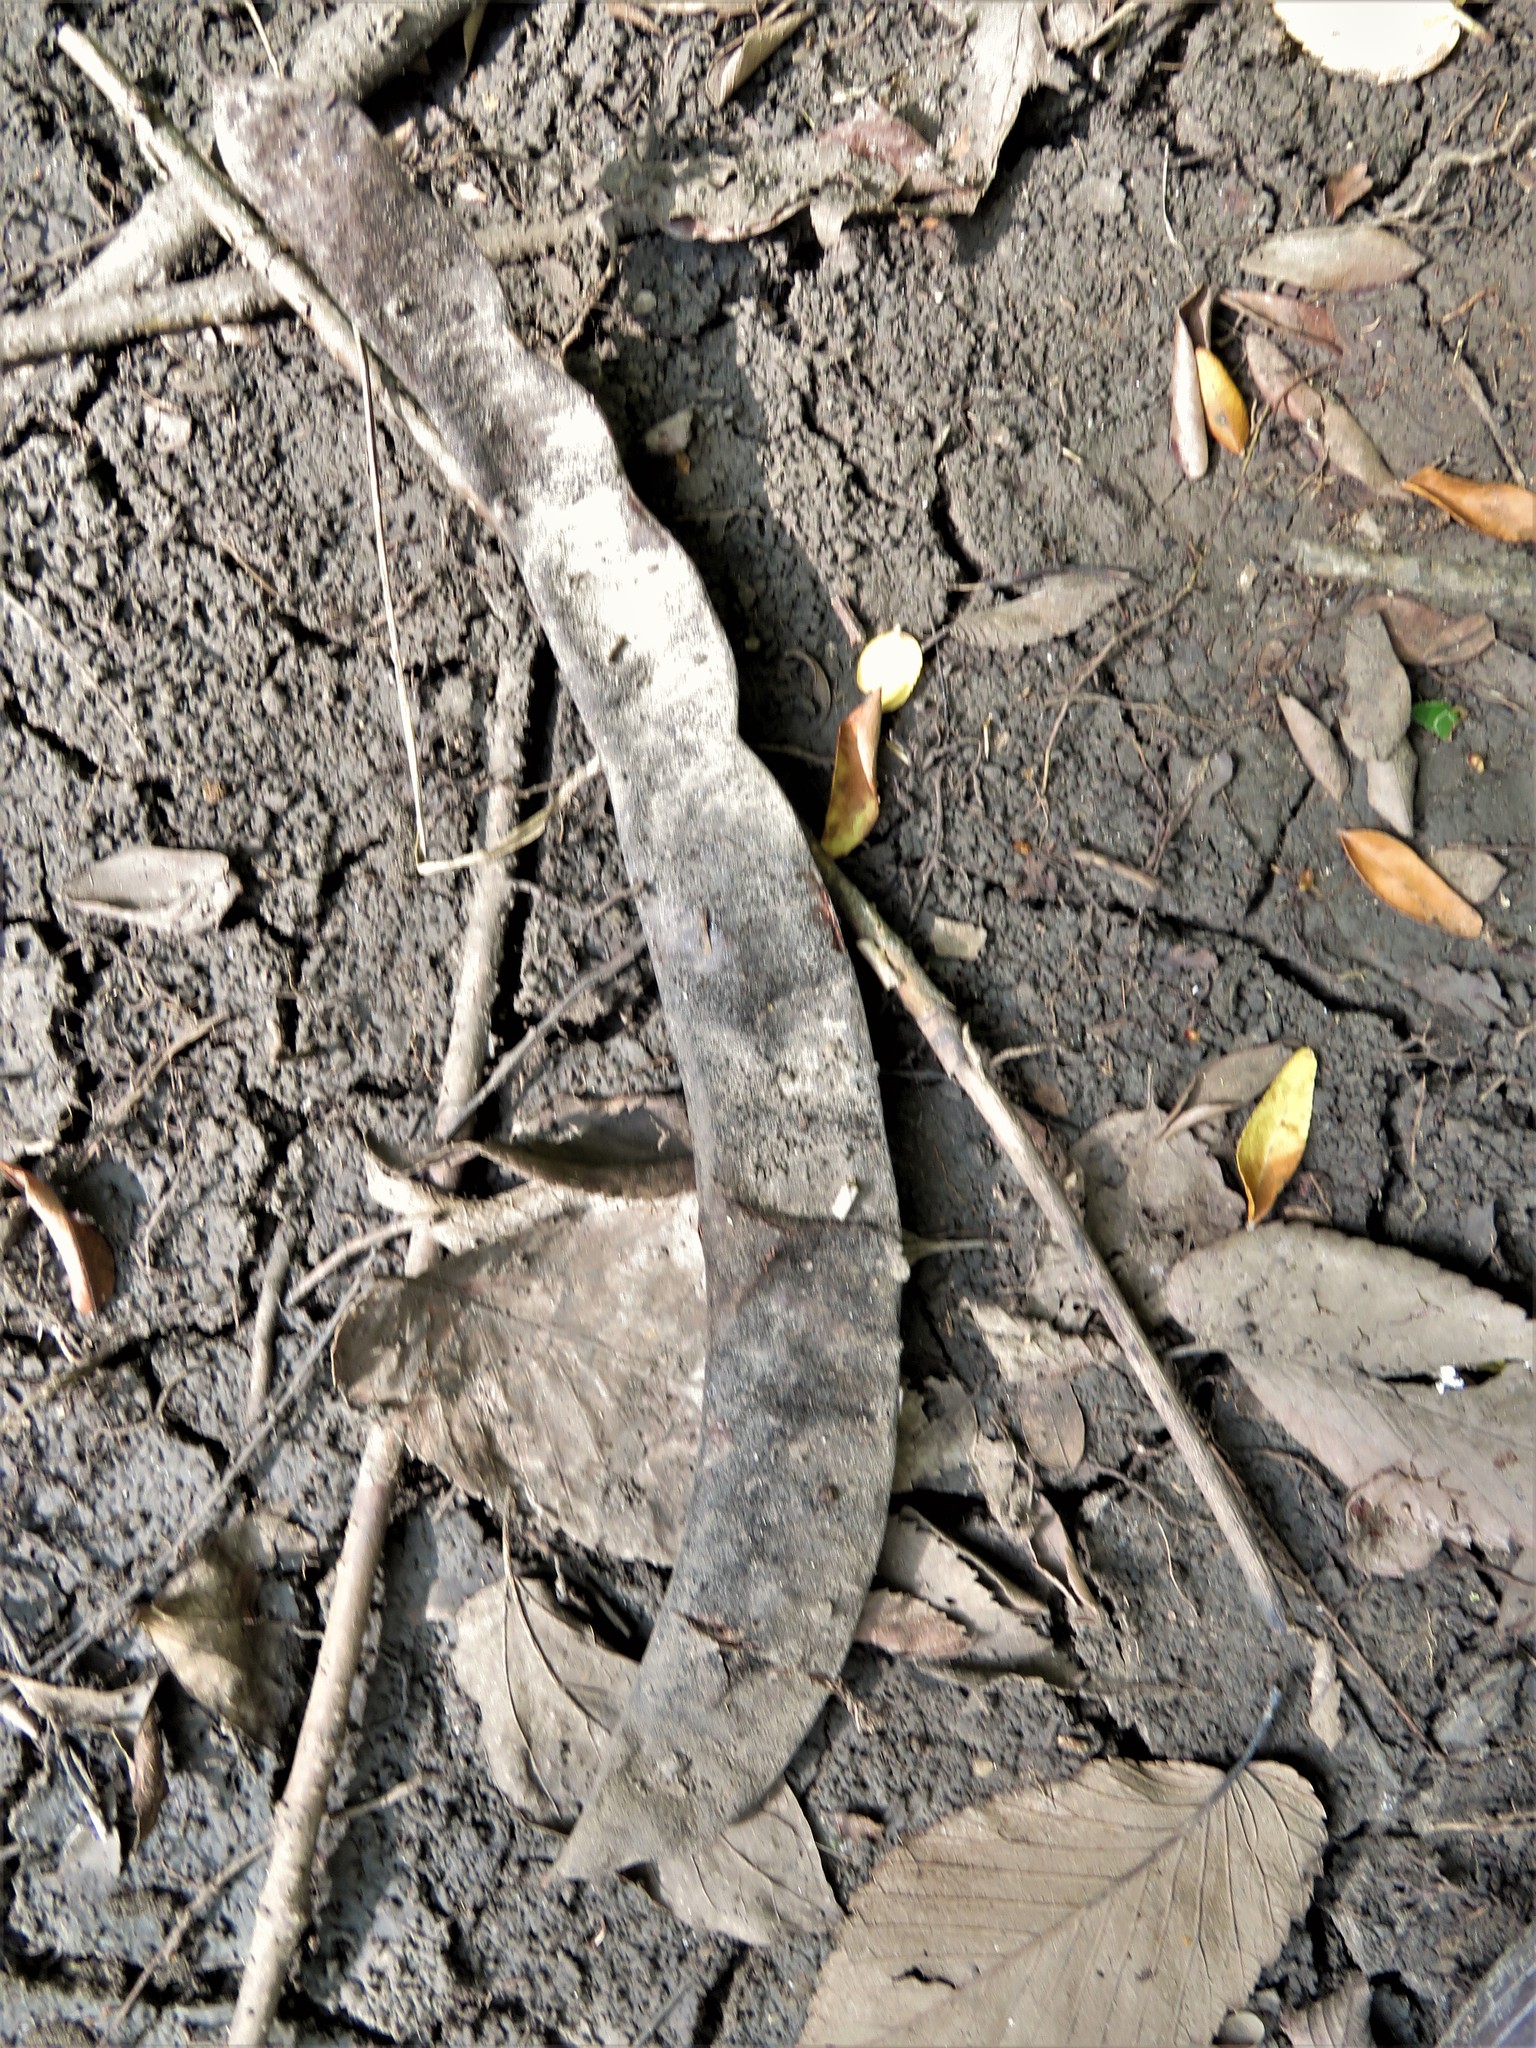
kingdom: Plantae
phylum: Tracheophyta
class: Magnoliopsida
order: Fabales
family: Fabaceae
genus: Gleditsia
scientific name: Gleditsia triacanthos
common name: Common honeylocust
